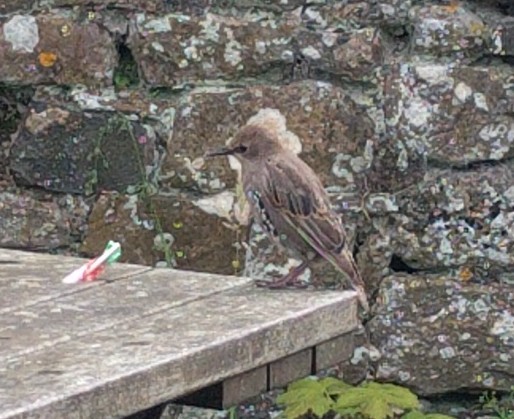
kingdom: Animalia
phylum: Chordata
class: Aves
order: Passeriformes
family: Sturnidae
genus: Sturnus
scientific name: Sturnus vulgaris
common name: Common starling
